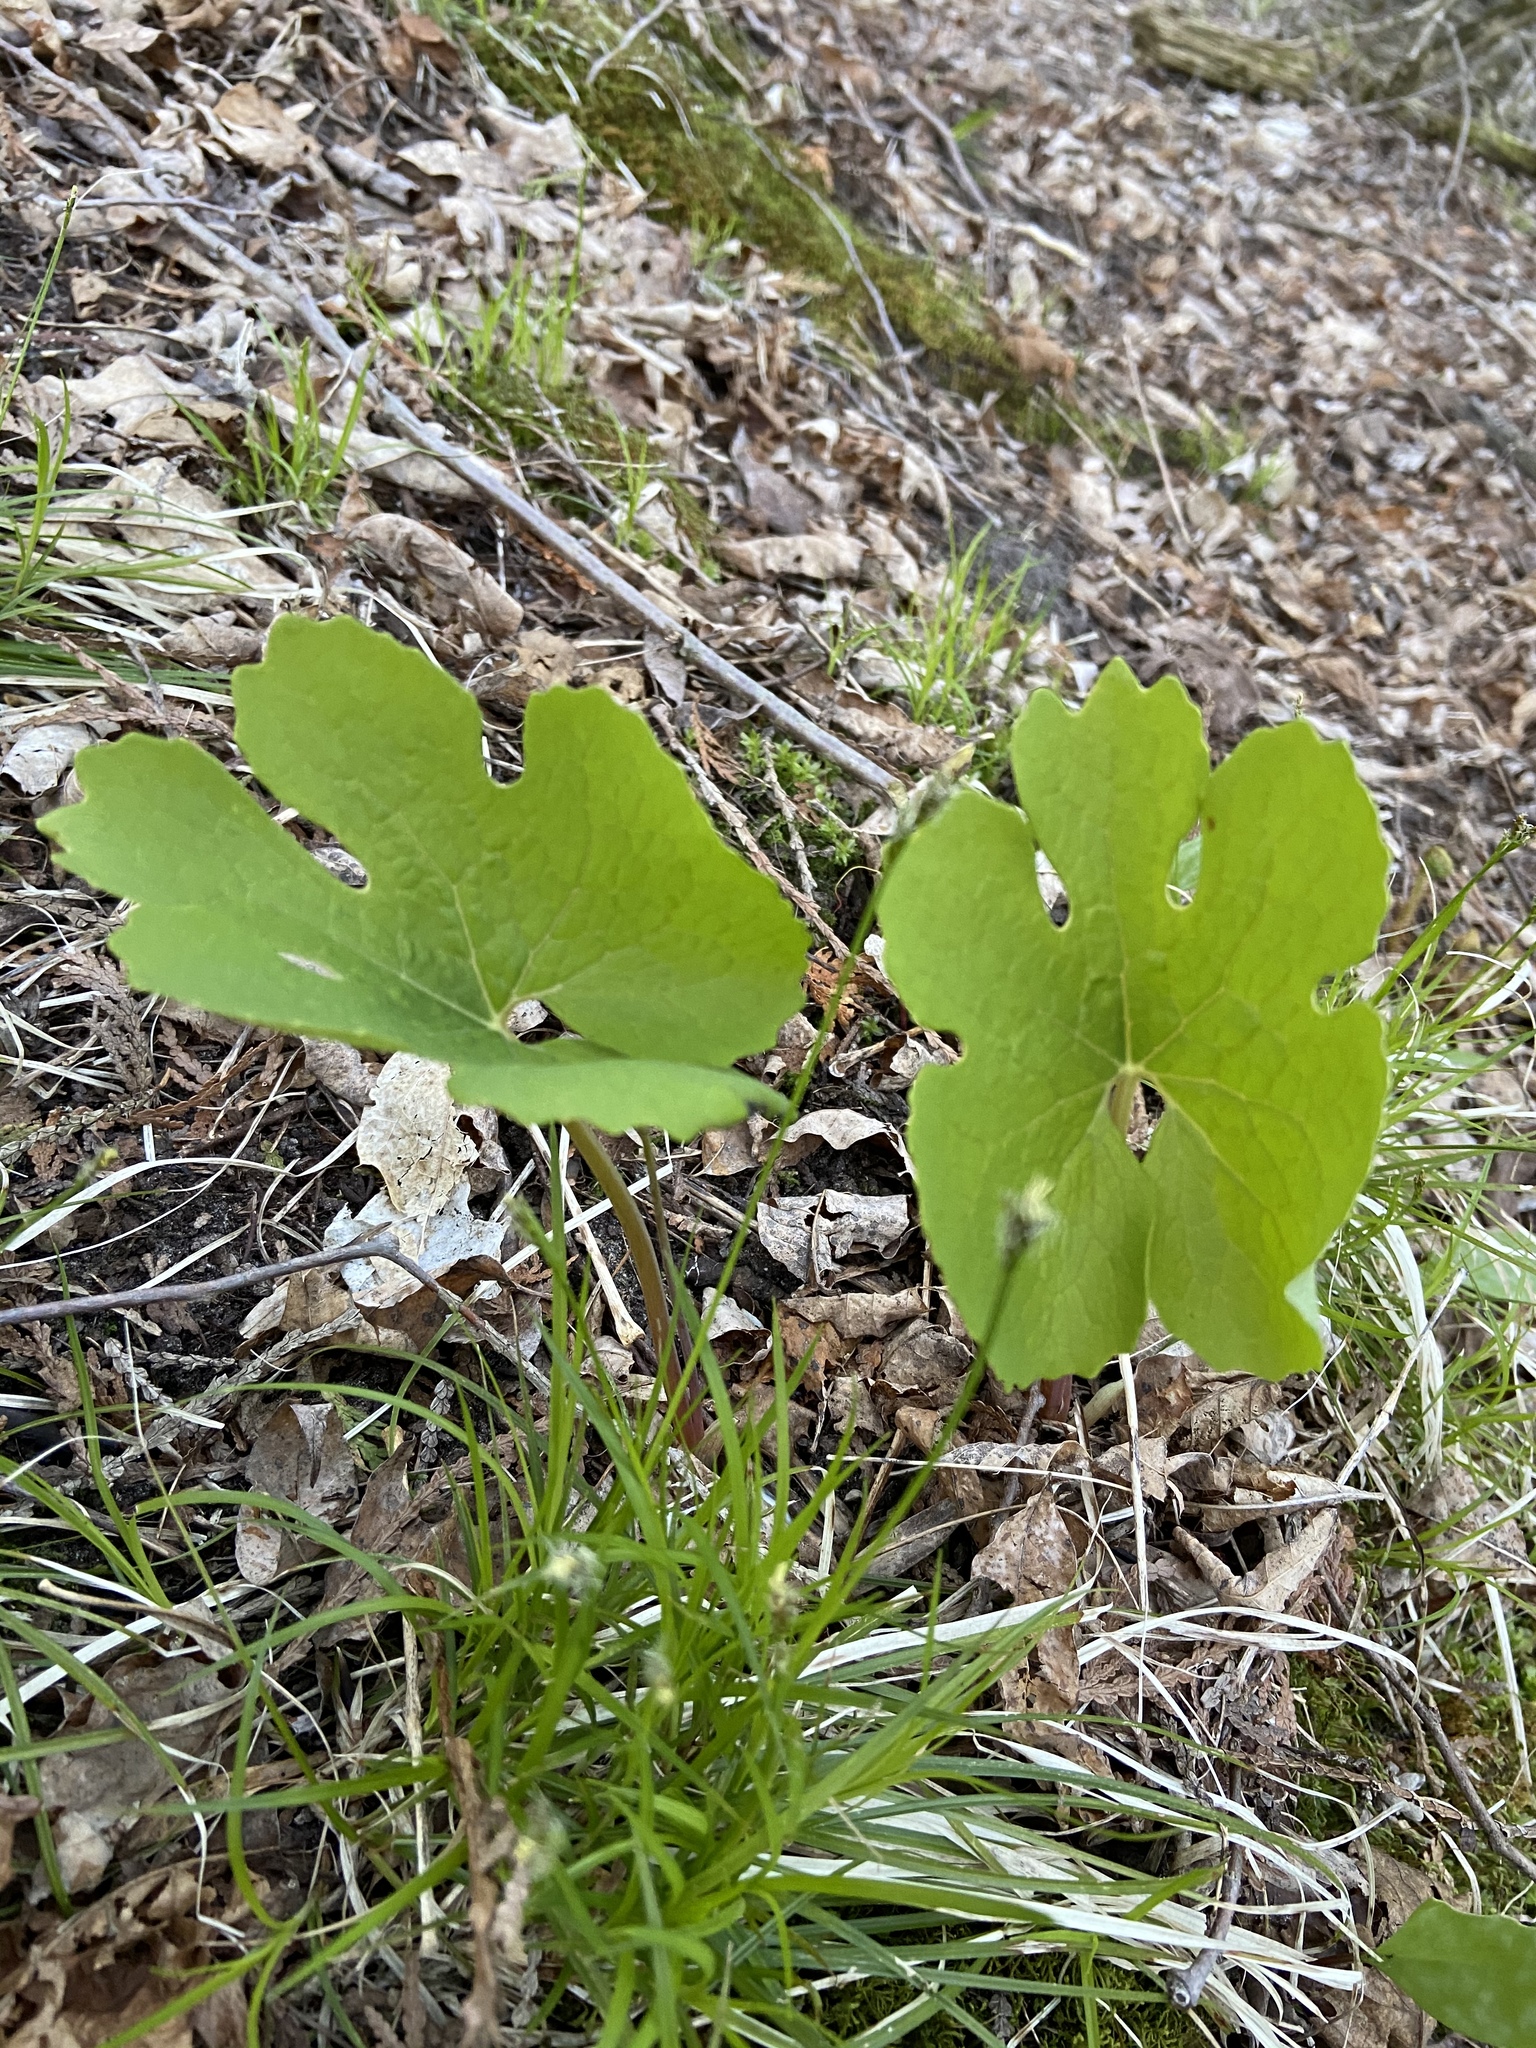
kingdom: Plantae
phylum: Tracheophyta
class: Magnoliopsida
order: Ranunculales
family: Papaveraceae
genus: Sanguinaria
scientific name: Sanguinaria canadensis
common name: Bloodroot
